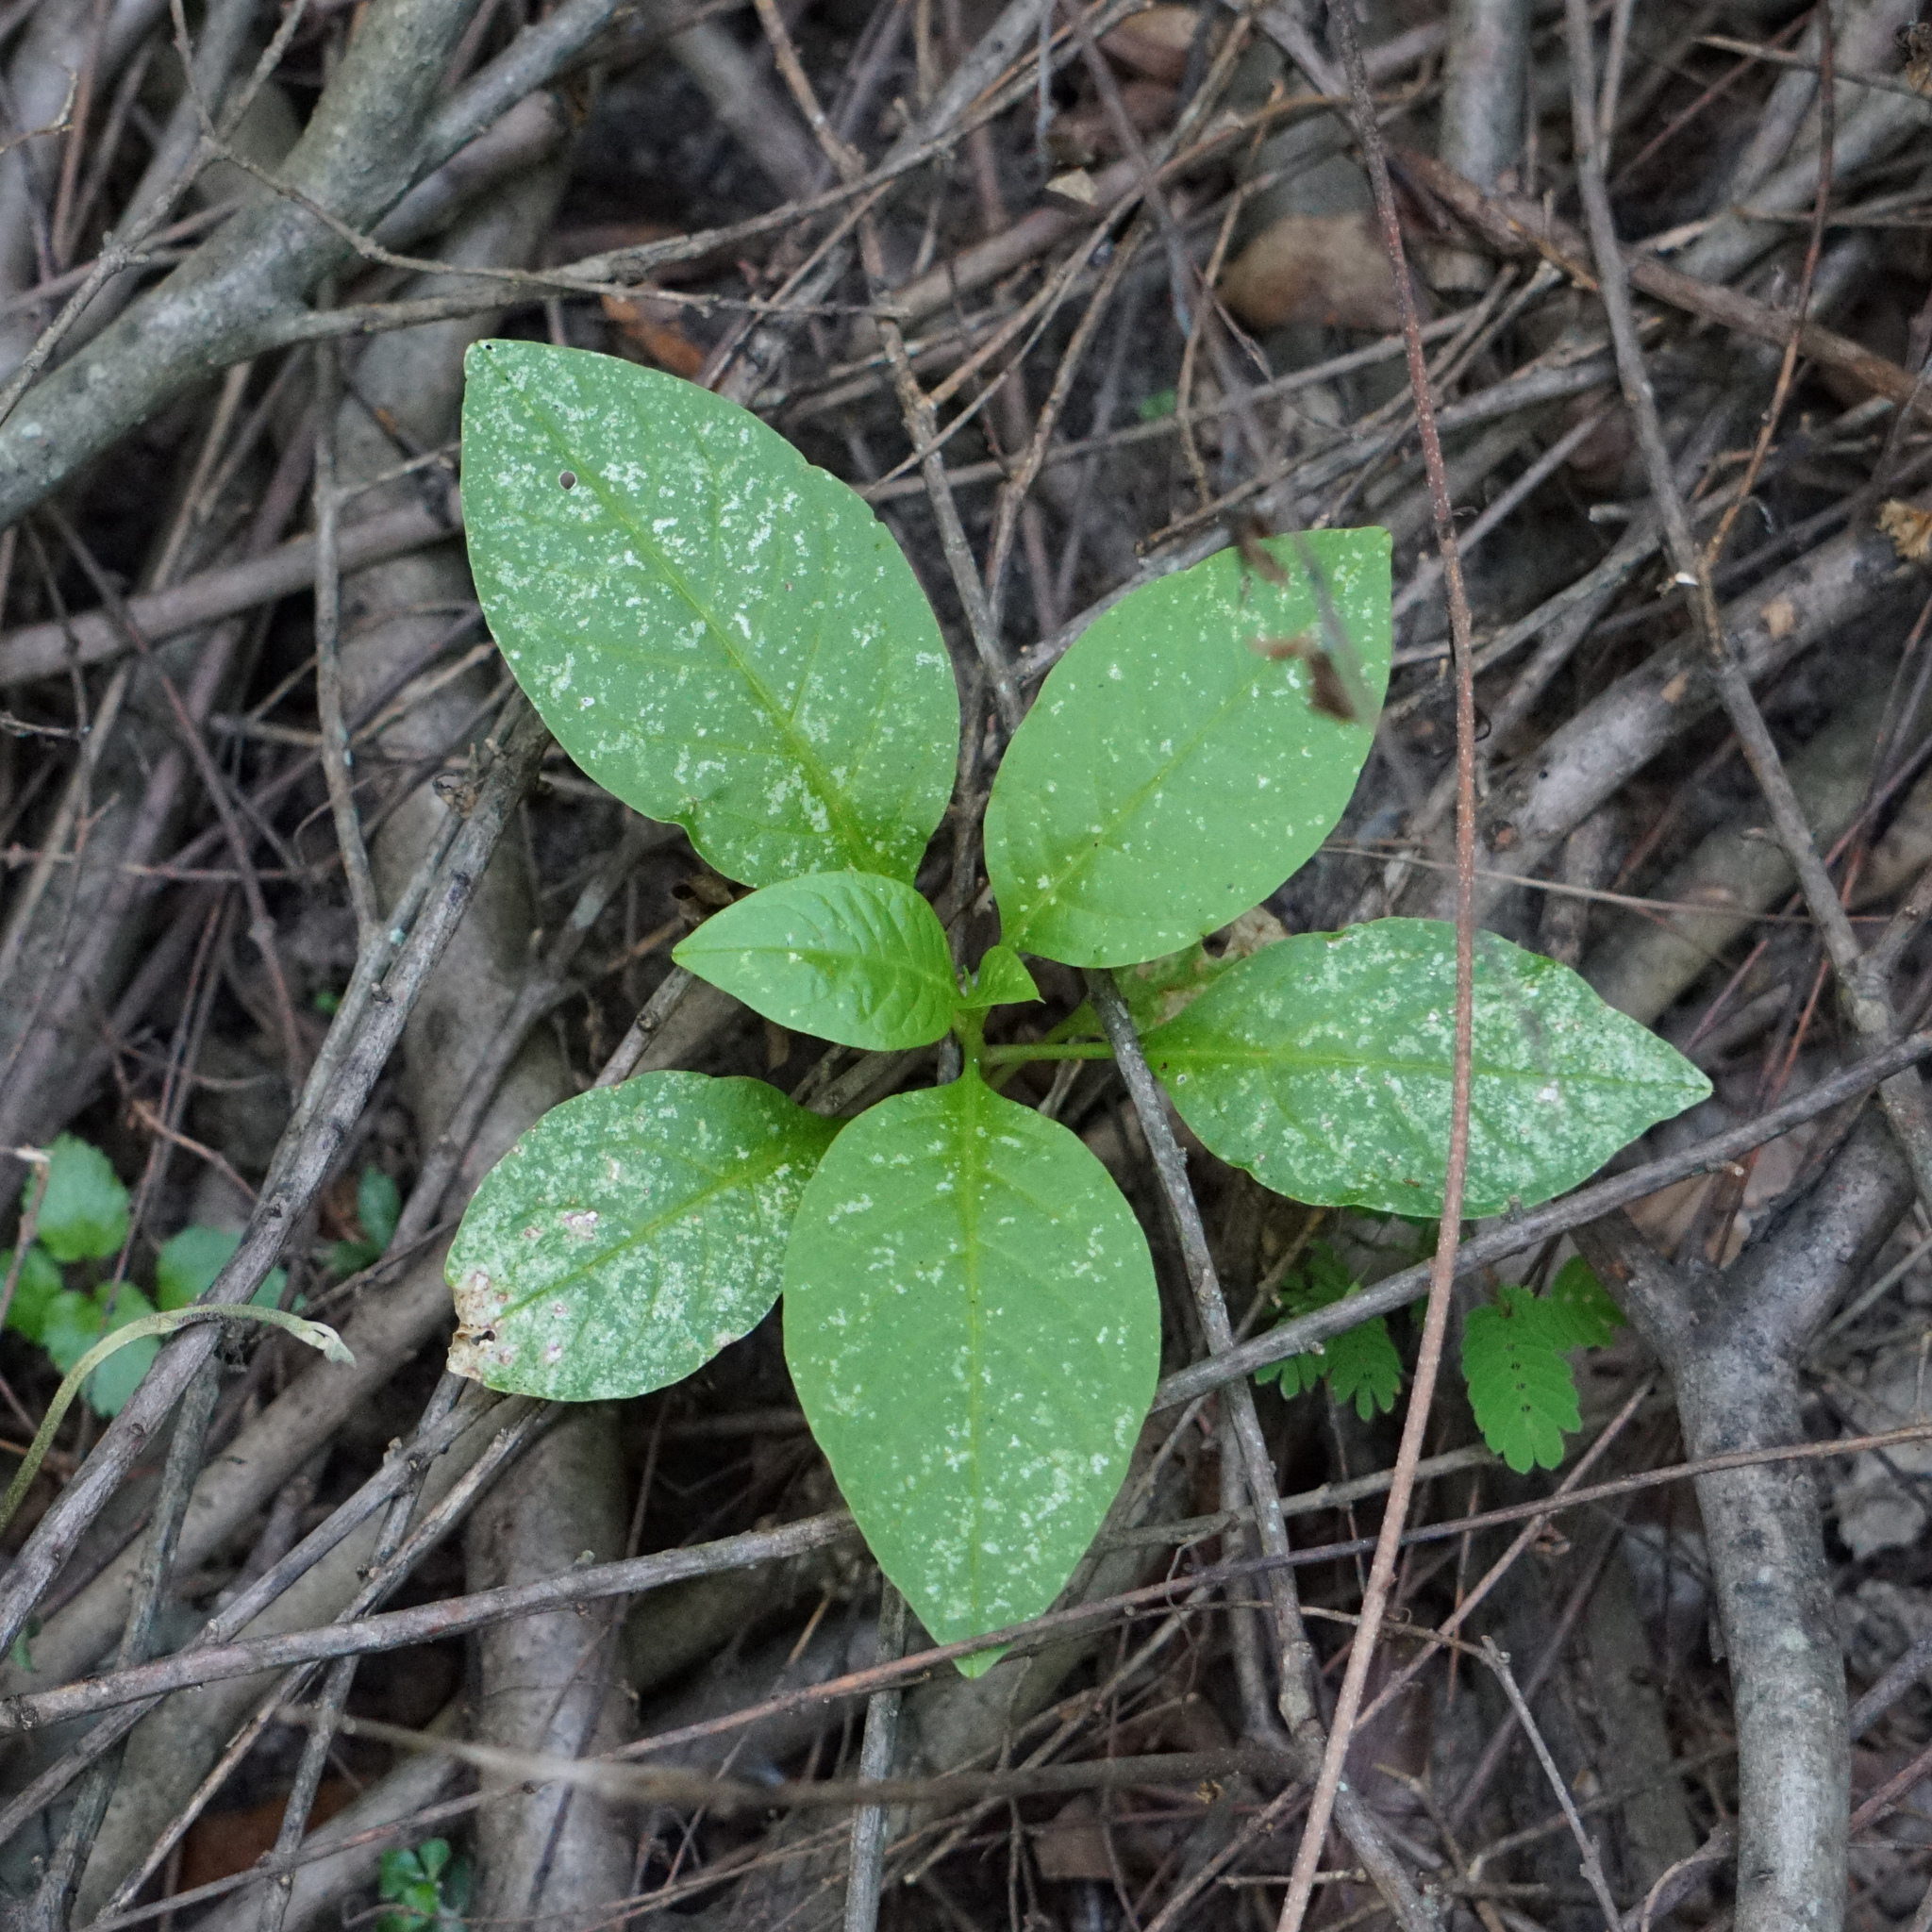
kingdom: Plantae
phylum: Tracheophyta
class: Magnoliopsida
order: Caryophyllales
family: Phytolaccaceae
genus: Phytolacca
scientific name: Phytolacca americana
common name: American pokeweed
